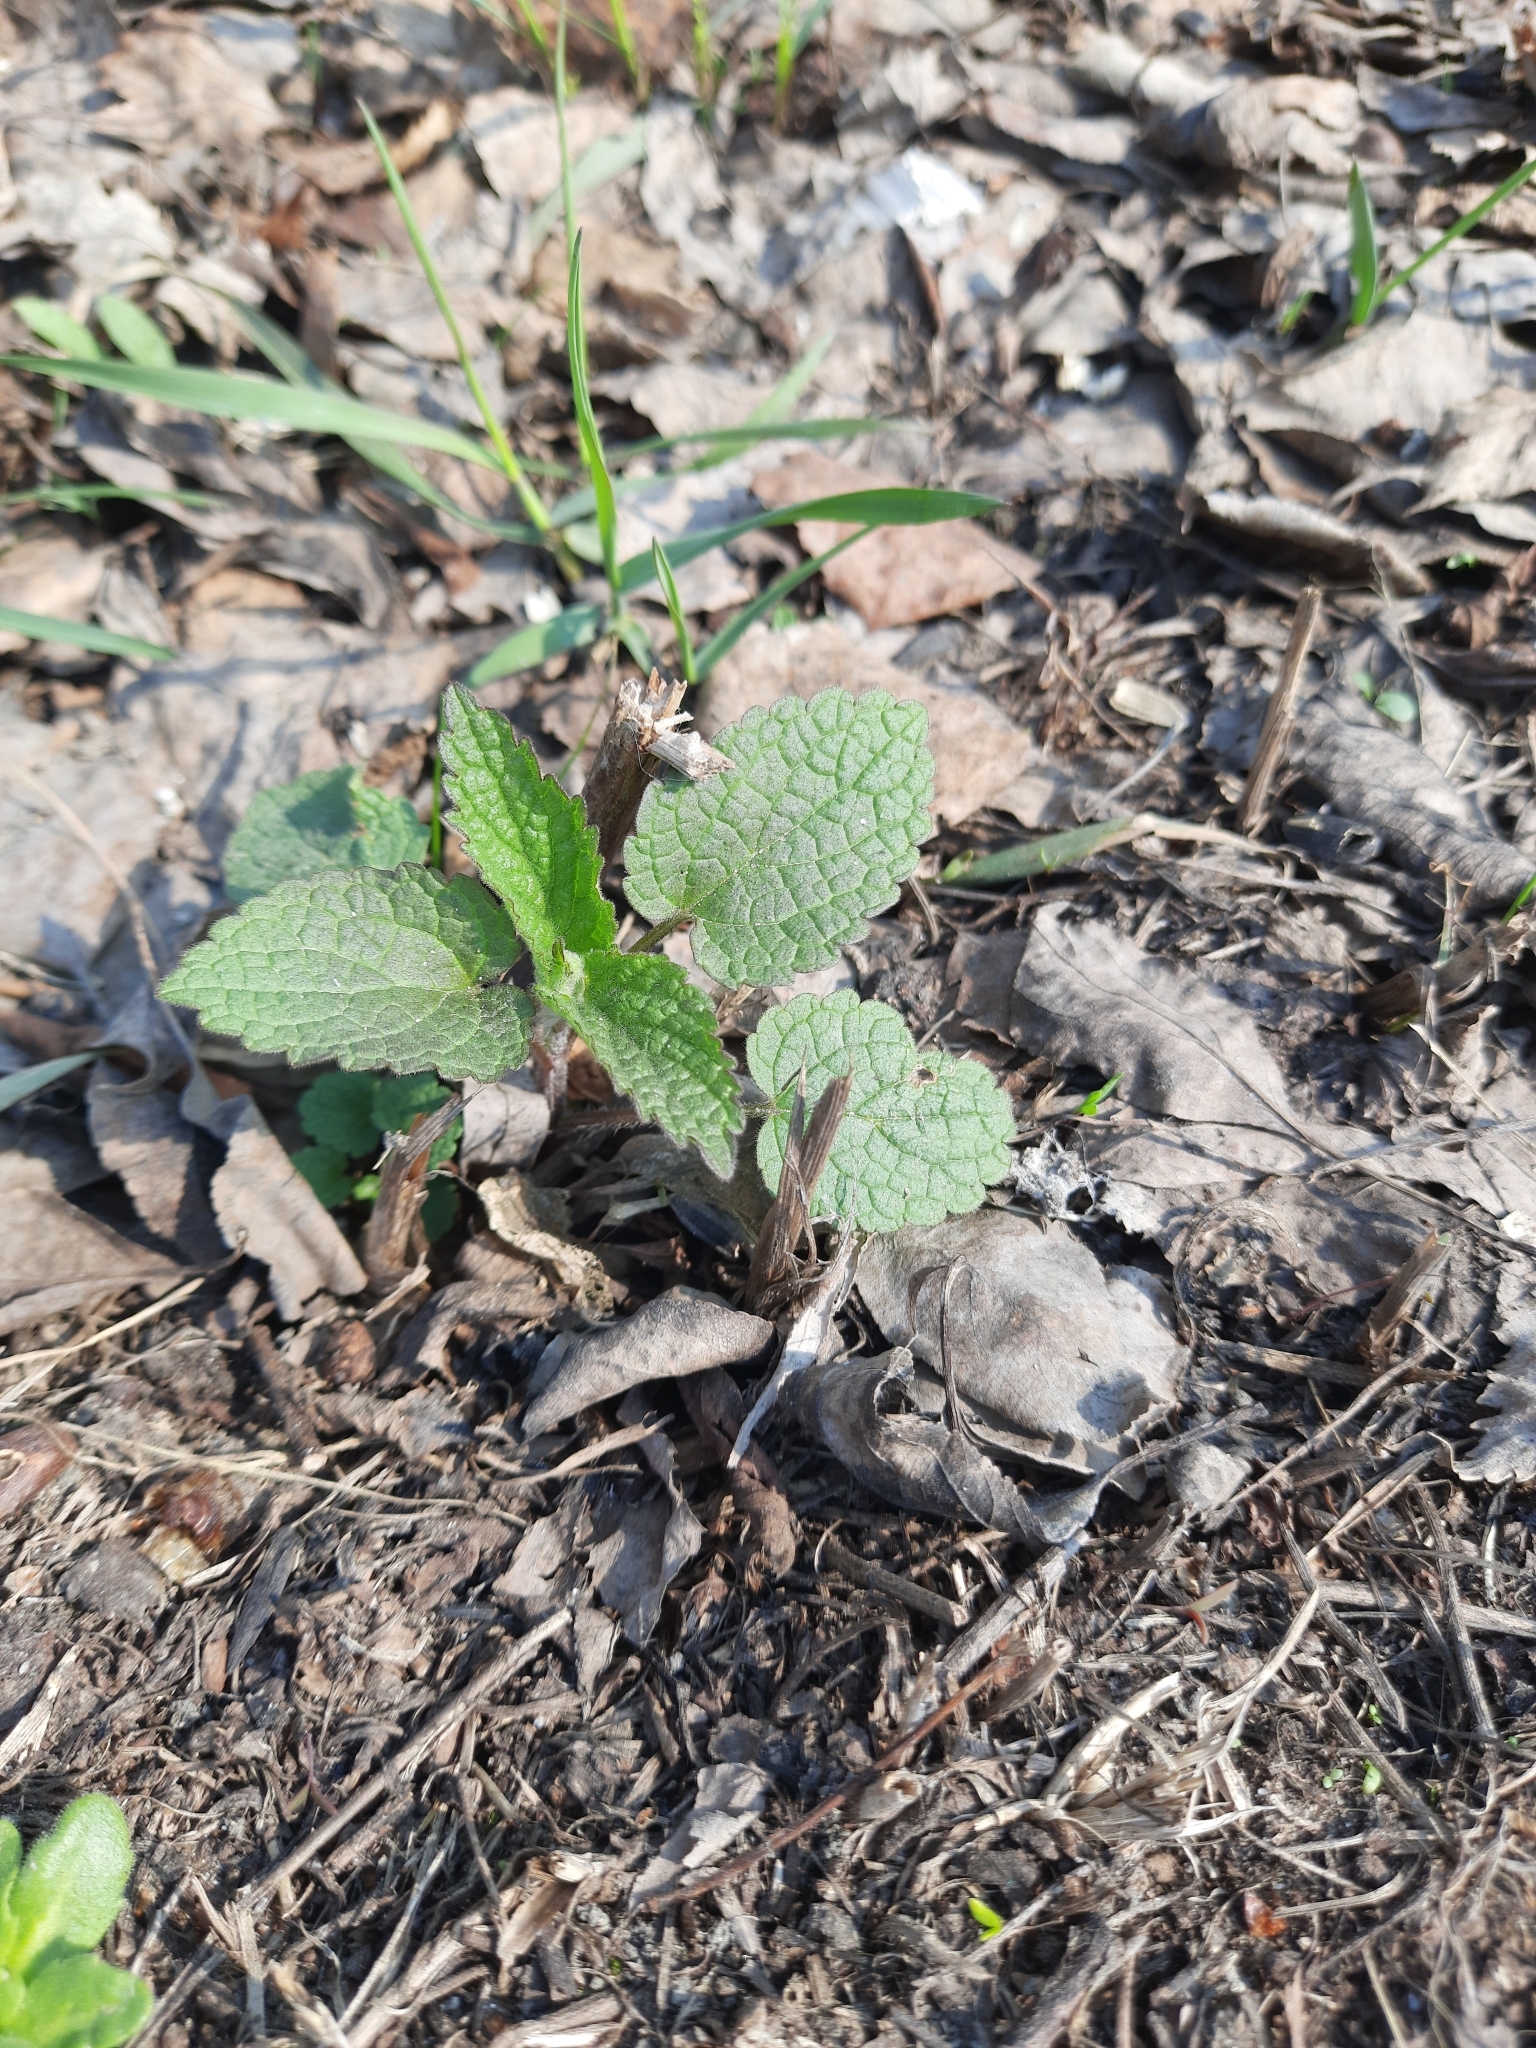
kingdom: Plantae
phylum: Tracheophyta
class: Magnoliopsida
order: Lamiales
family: Lamiaceae
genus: Lamium
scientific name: Lamium album
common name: White dead-nettle
